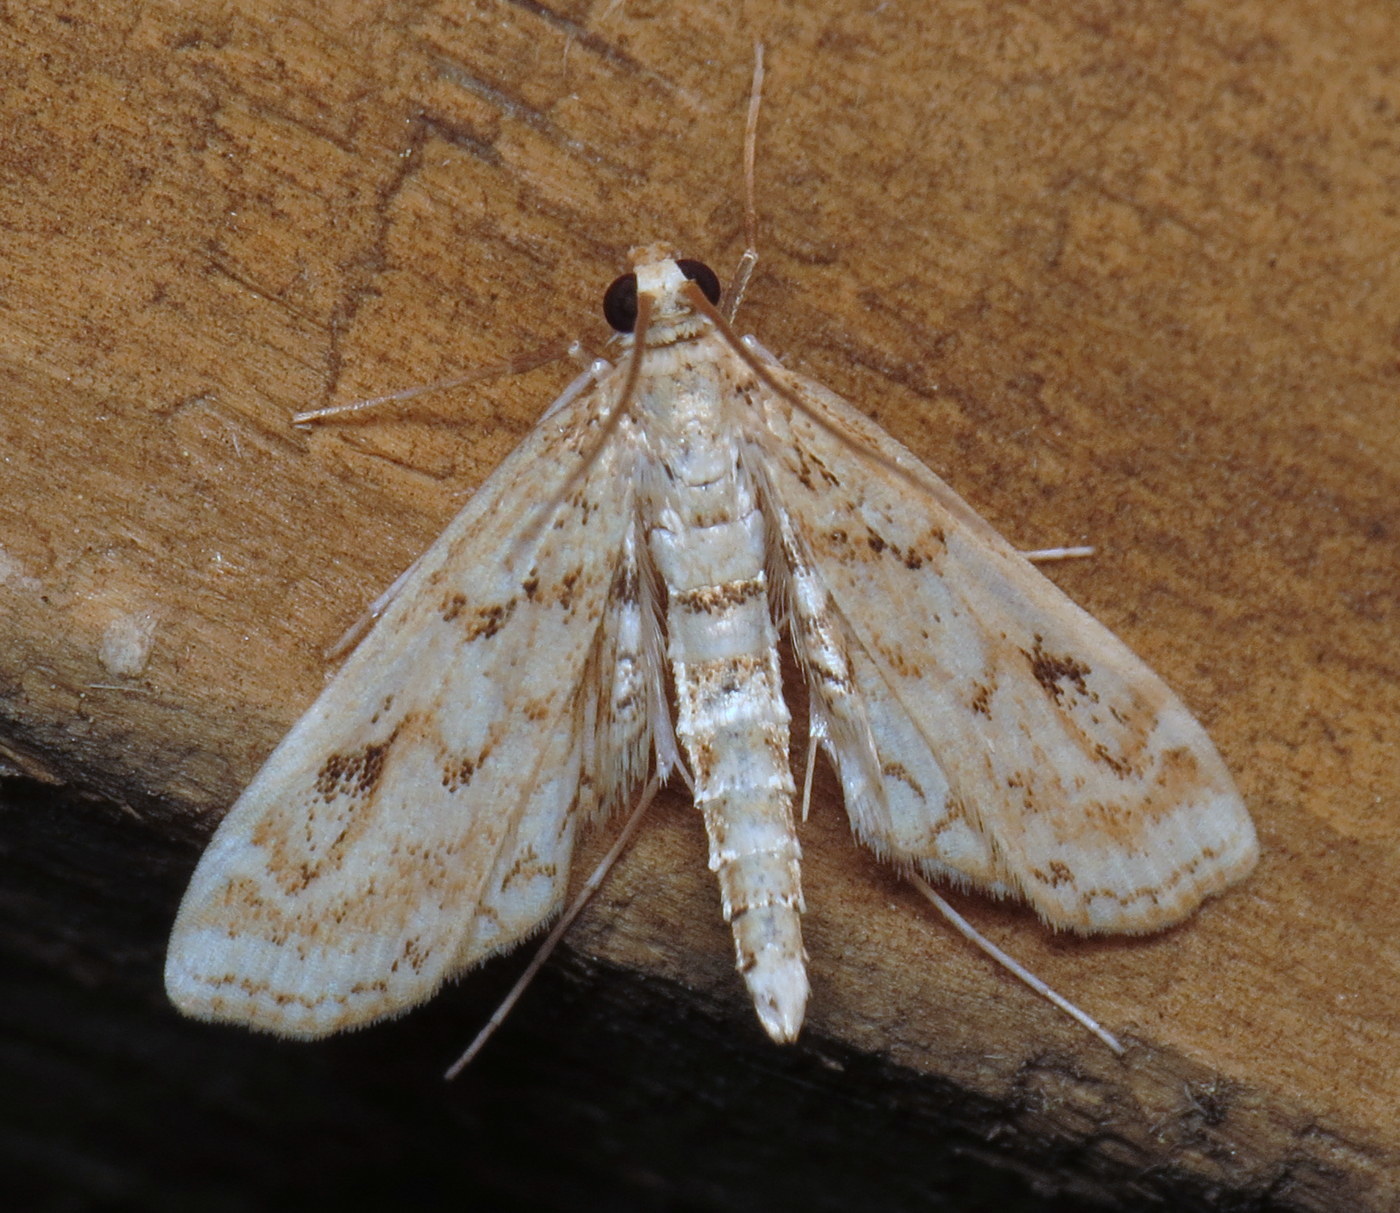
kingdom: Animalia
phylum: Arthropoda
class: Insecta
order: Lepidoptera
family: Crambidae
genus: Parapoynx
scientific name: Parapoynx allionealis
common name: Bladderwort casemaker
